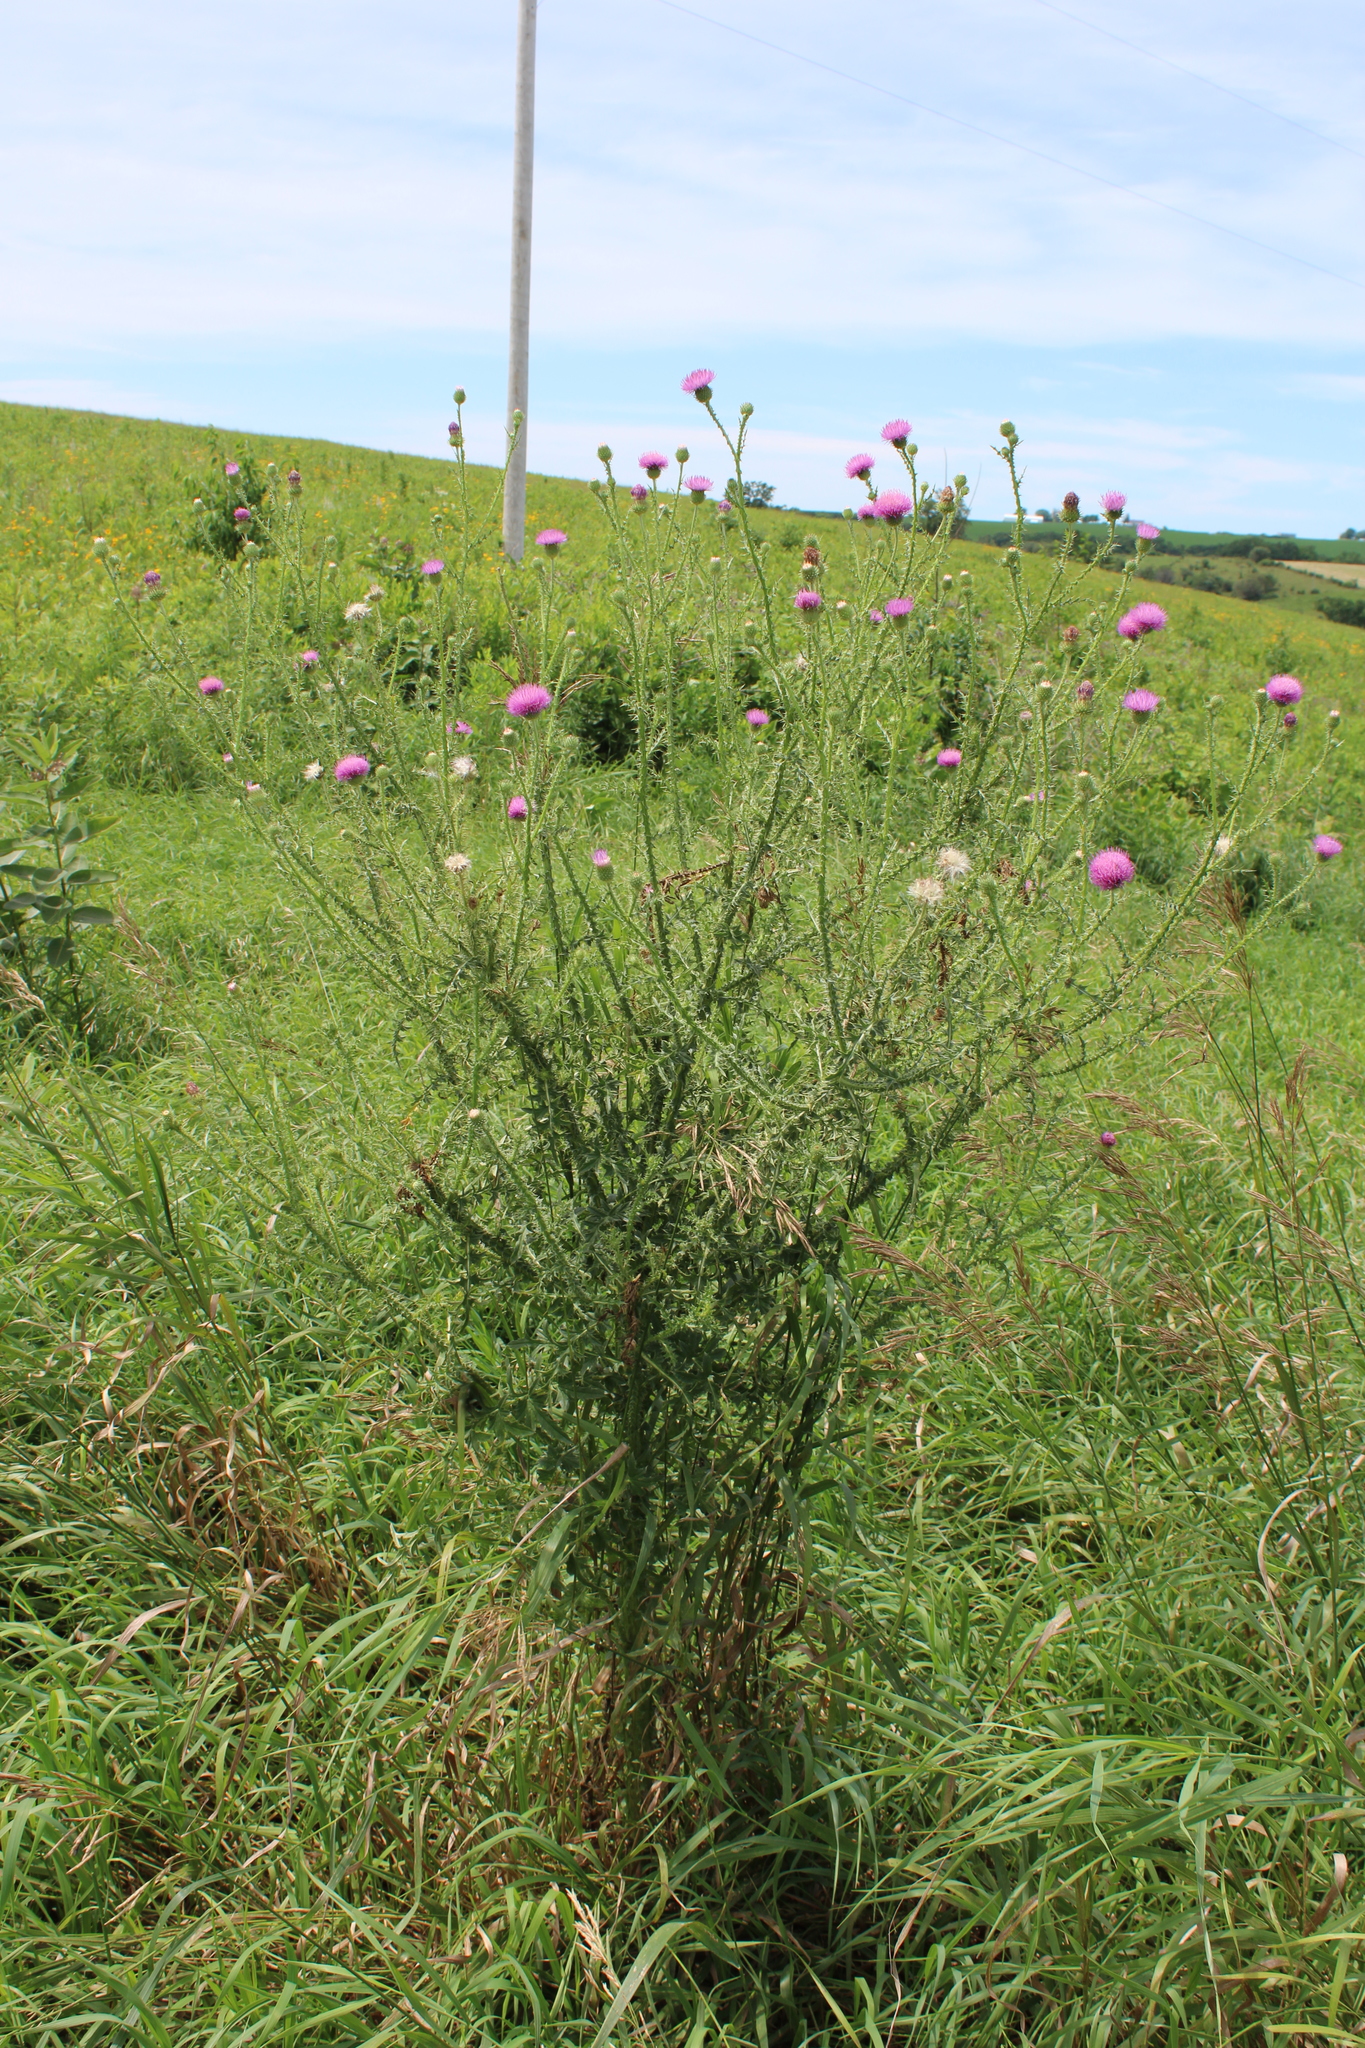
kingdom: Plantae
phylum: Tracheophyta
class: Magnoliopsida
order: Asterales
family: Asteraceae
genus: Carduus
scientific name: Carduus acanthoides
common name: Plumeless thistle
